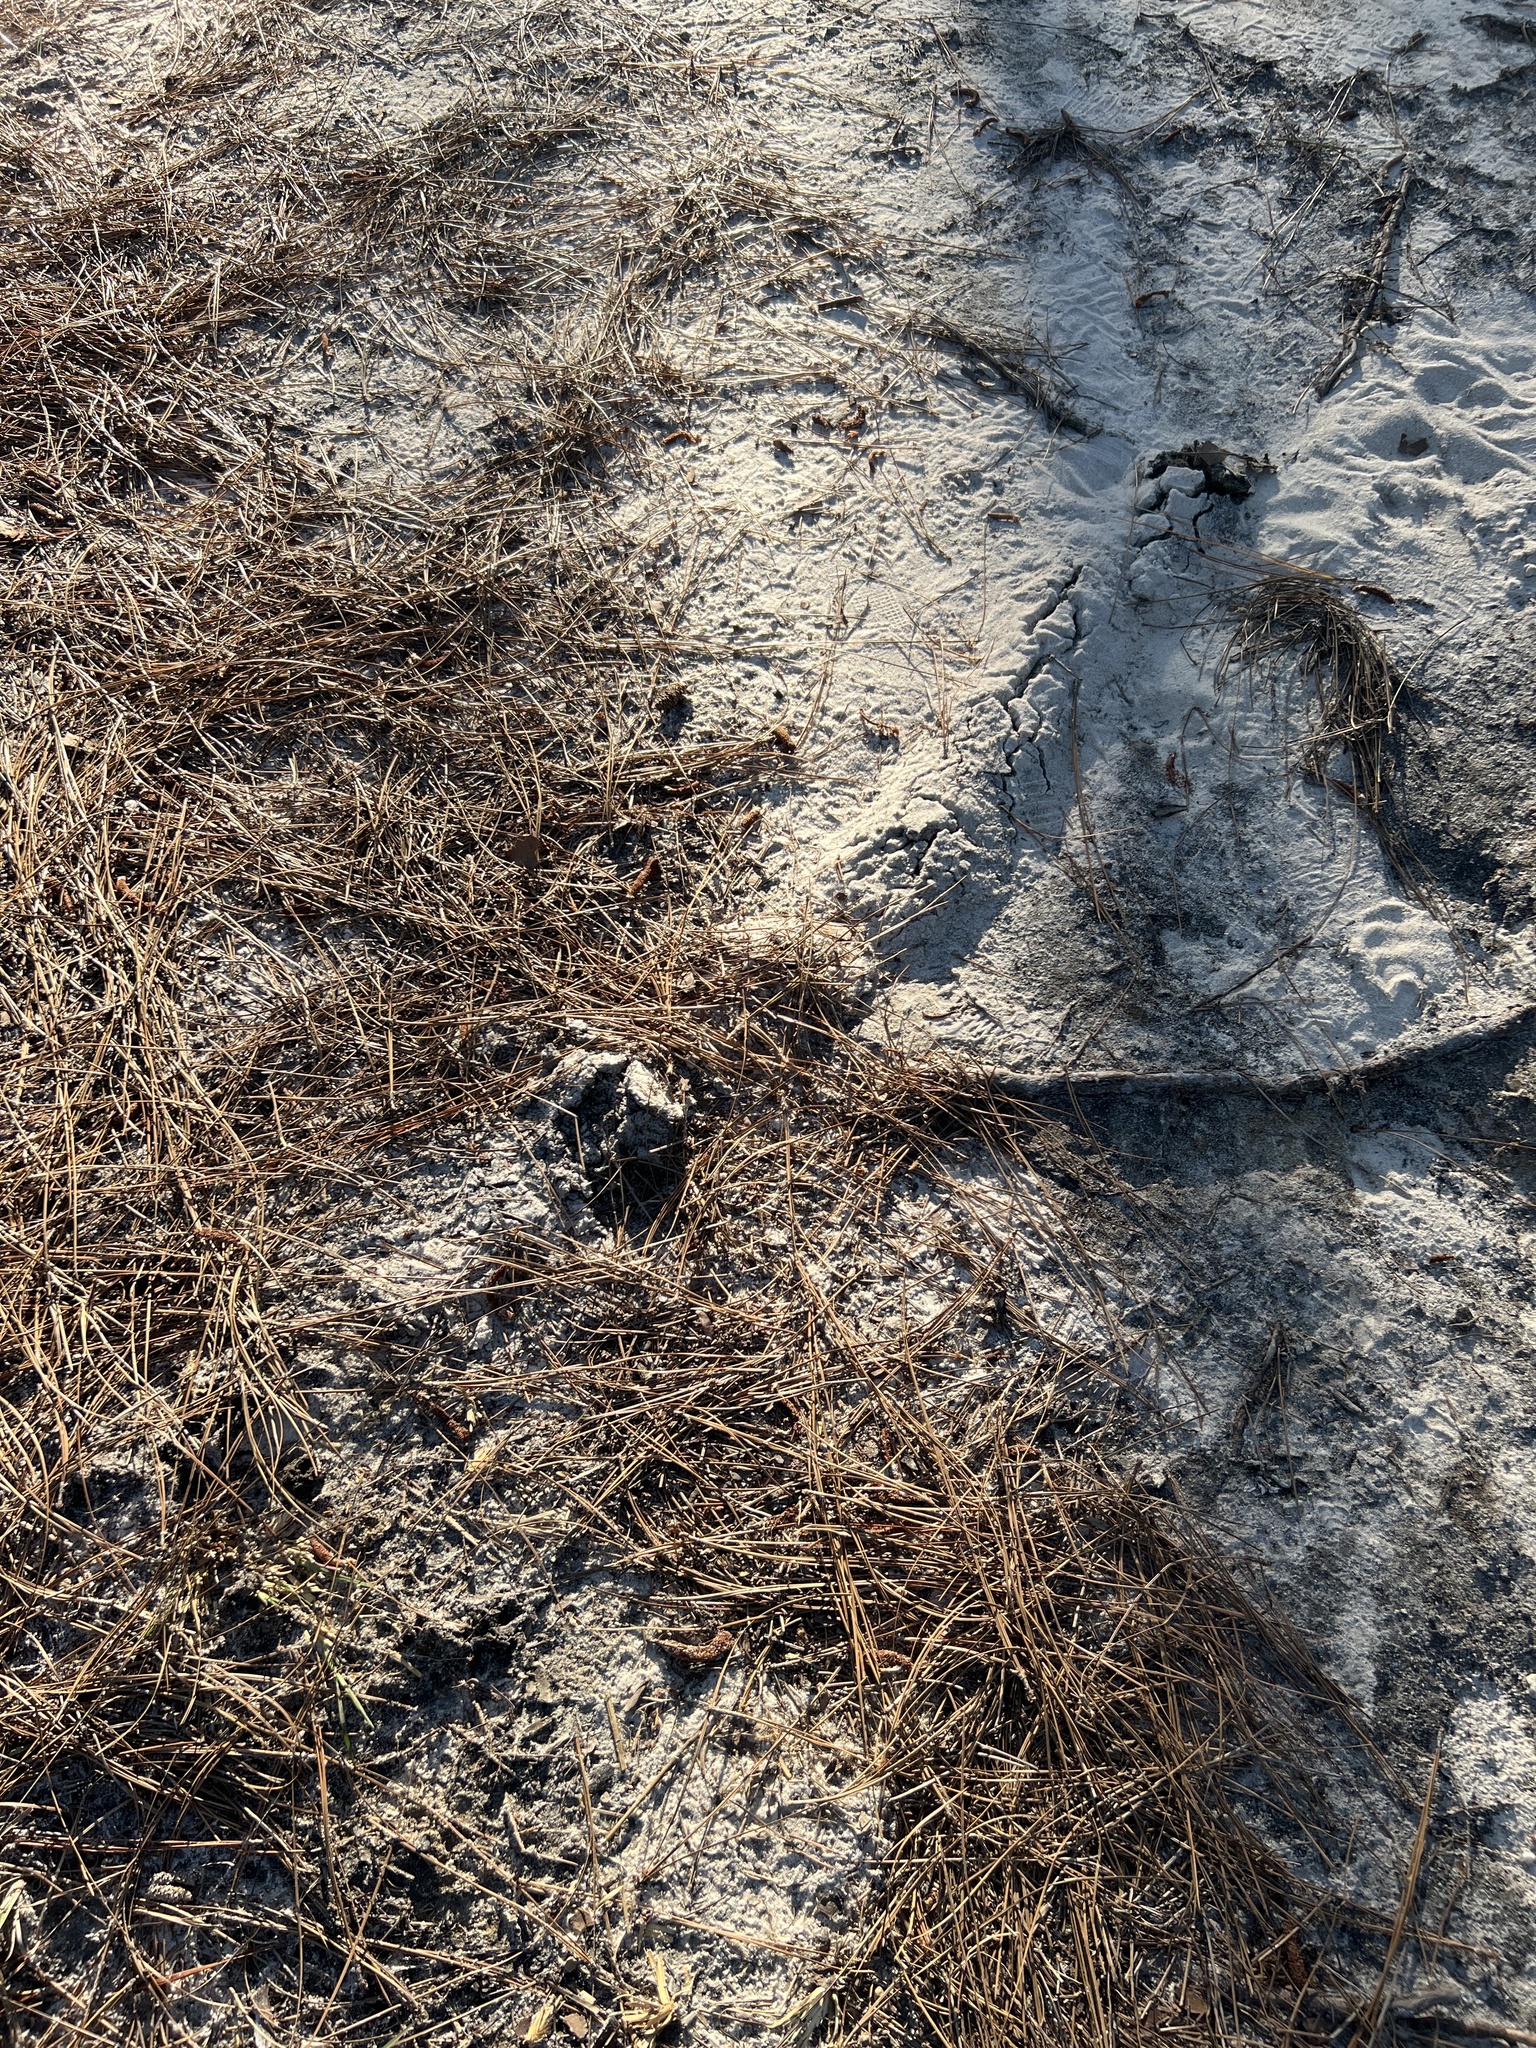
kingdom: Animalia
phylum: Chordata
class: Mammalia
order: Soricomorpha
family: Talpidae
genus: Scalopus
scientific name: Scalopus aquaticus
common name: Eastern mole
